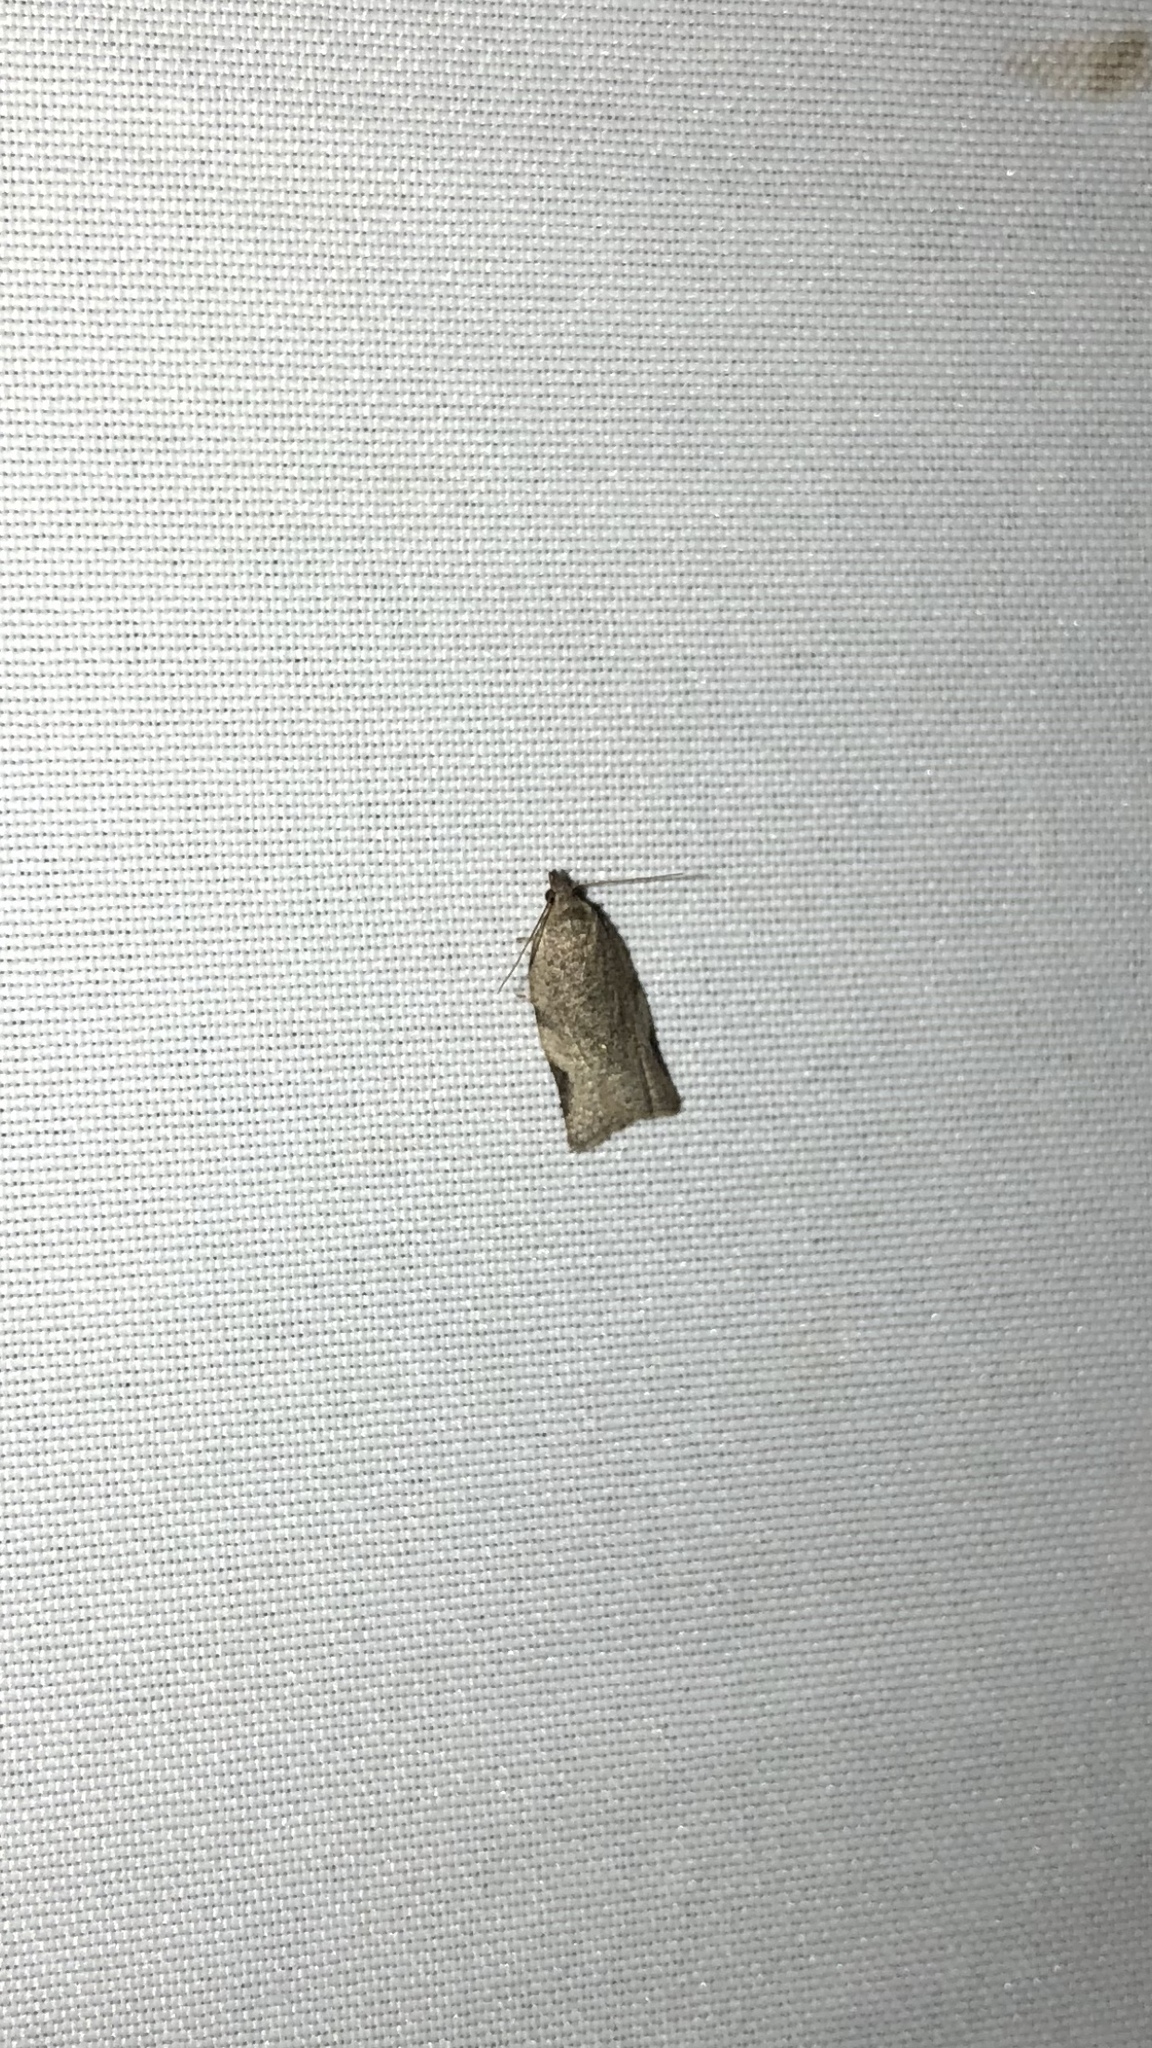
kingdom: Animalia
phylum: Arthropoda
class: Insecta
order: Lepidoptera
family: Tortricidae
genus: Clepsis
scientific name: Clepsis virescana
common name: Greenish apple moth
